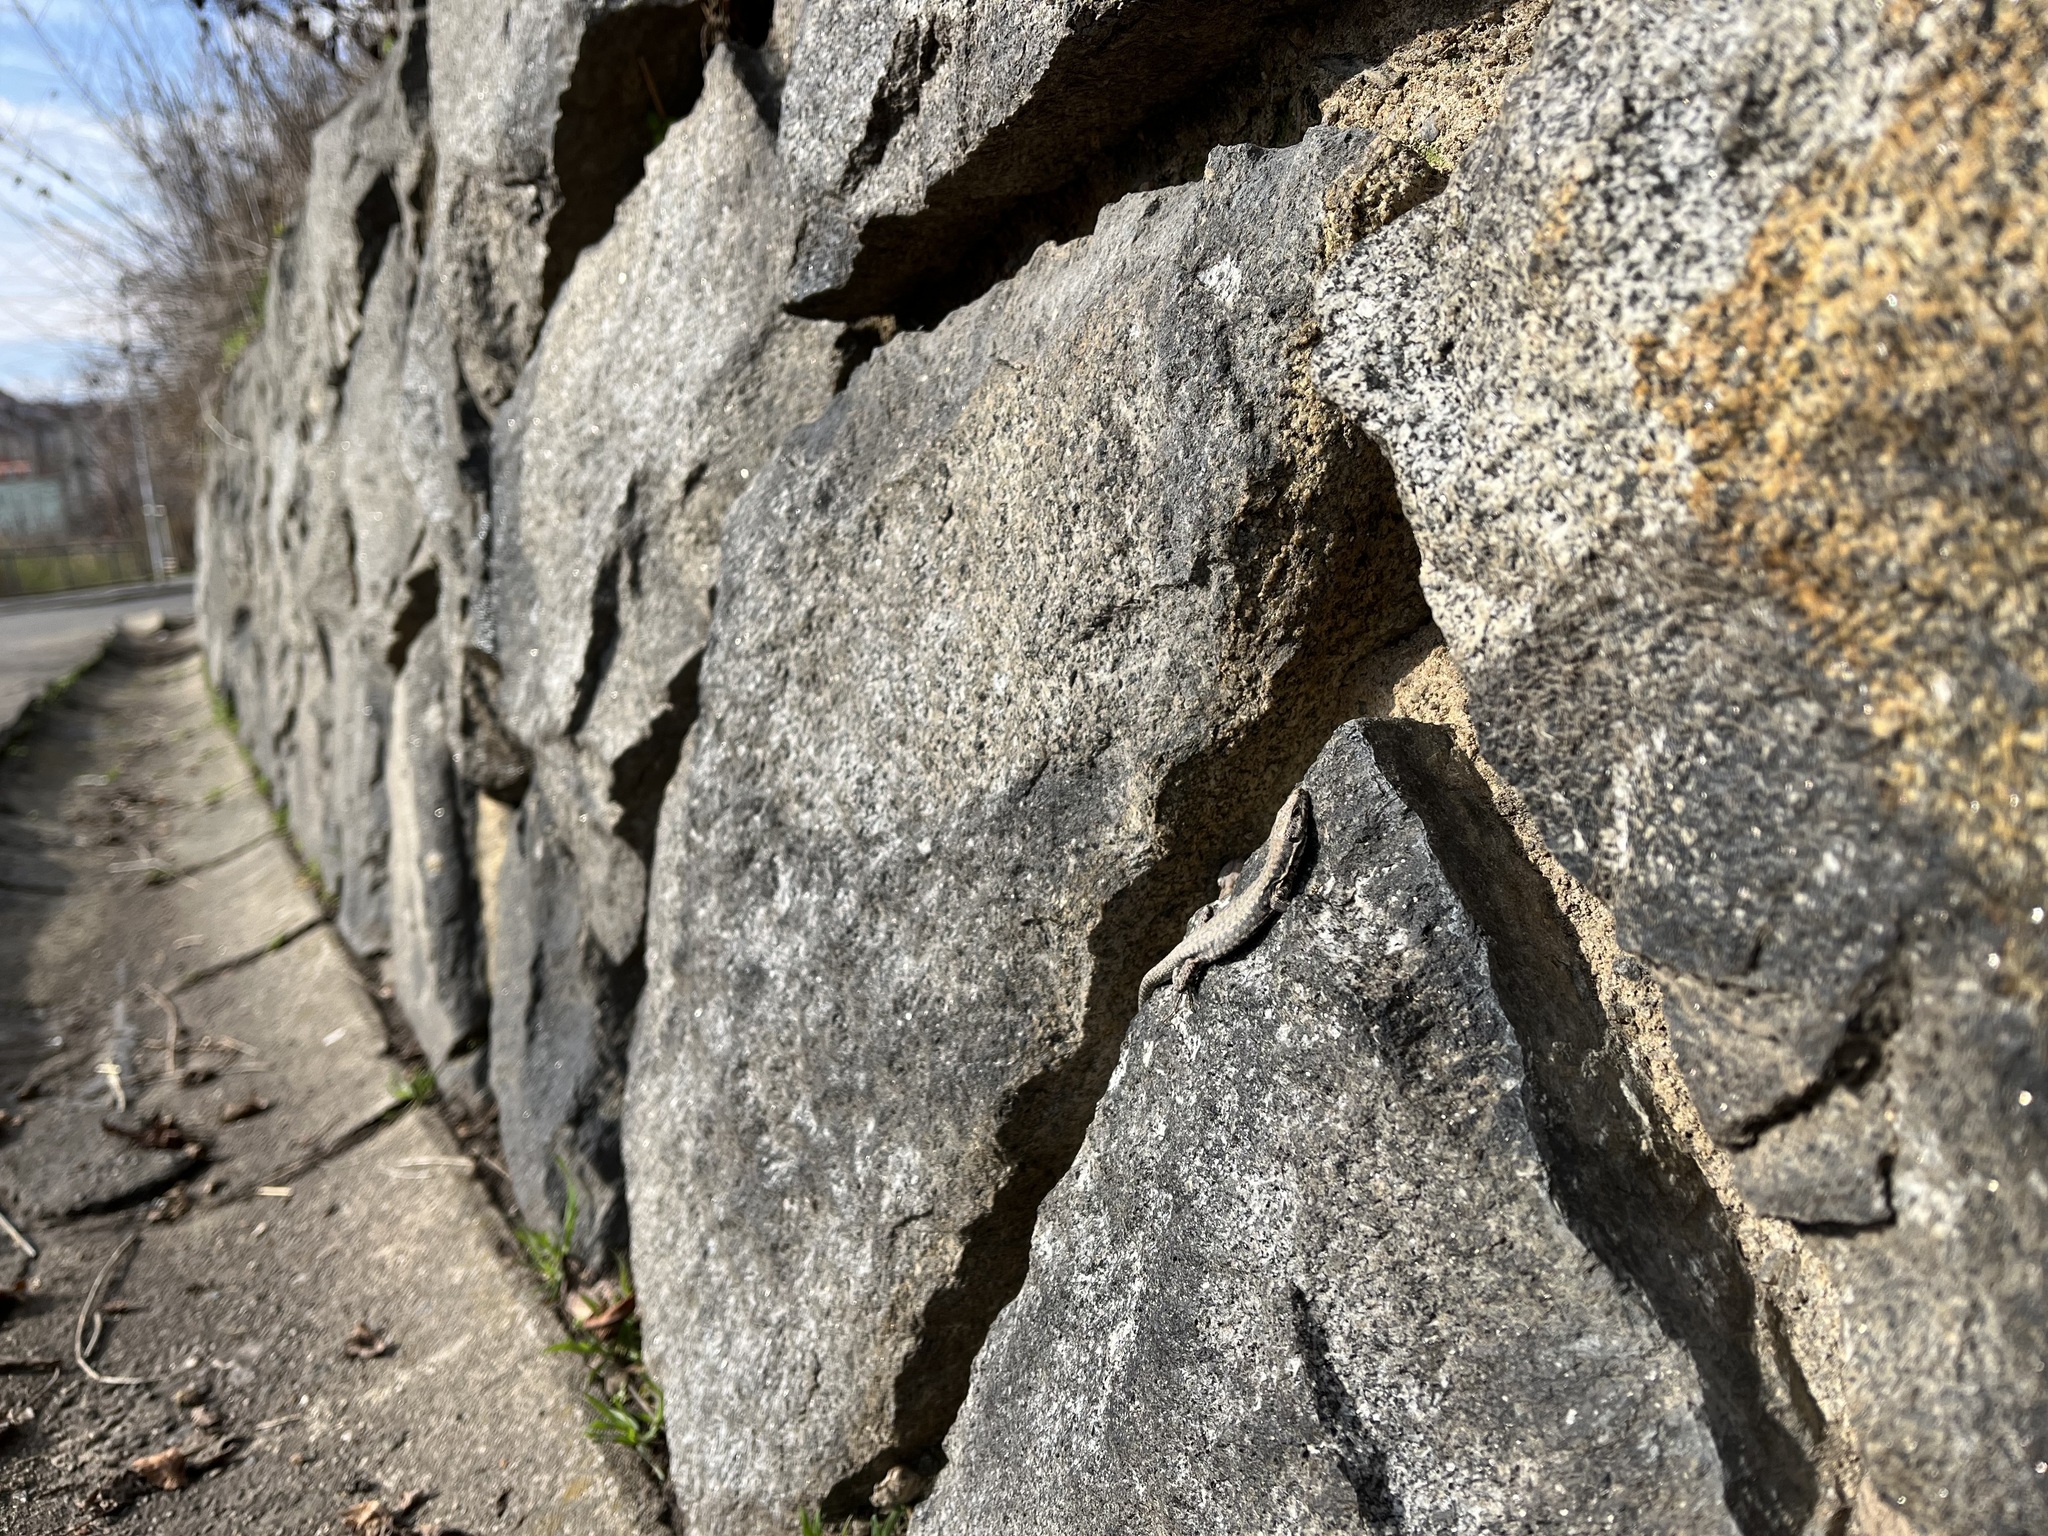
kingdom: Animalia
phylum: Chordata
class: Squamata
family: Lacertidae
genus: Podarcis
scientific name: Podarcis muralis
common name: Common wall lizard
